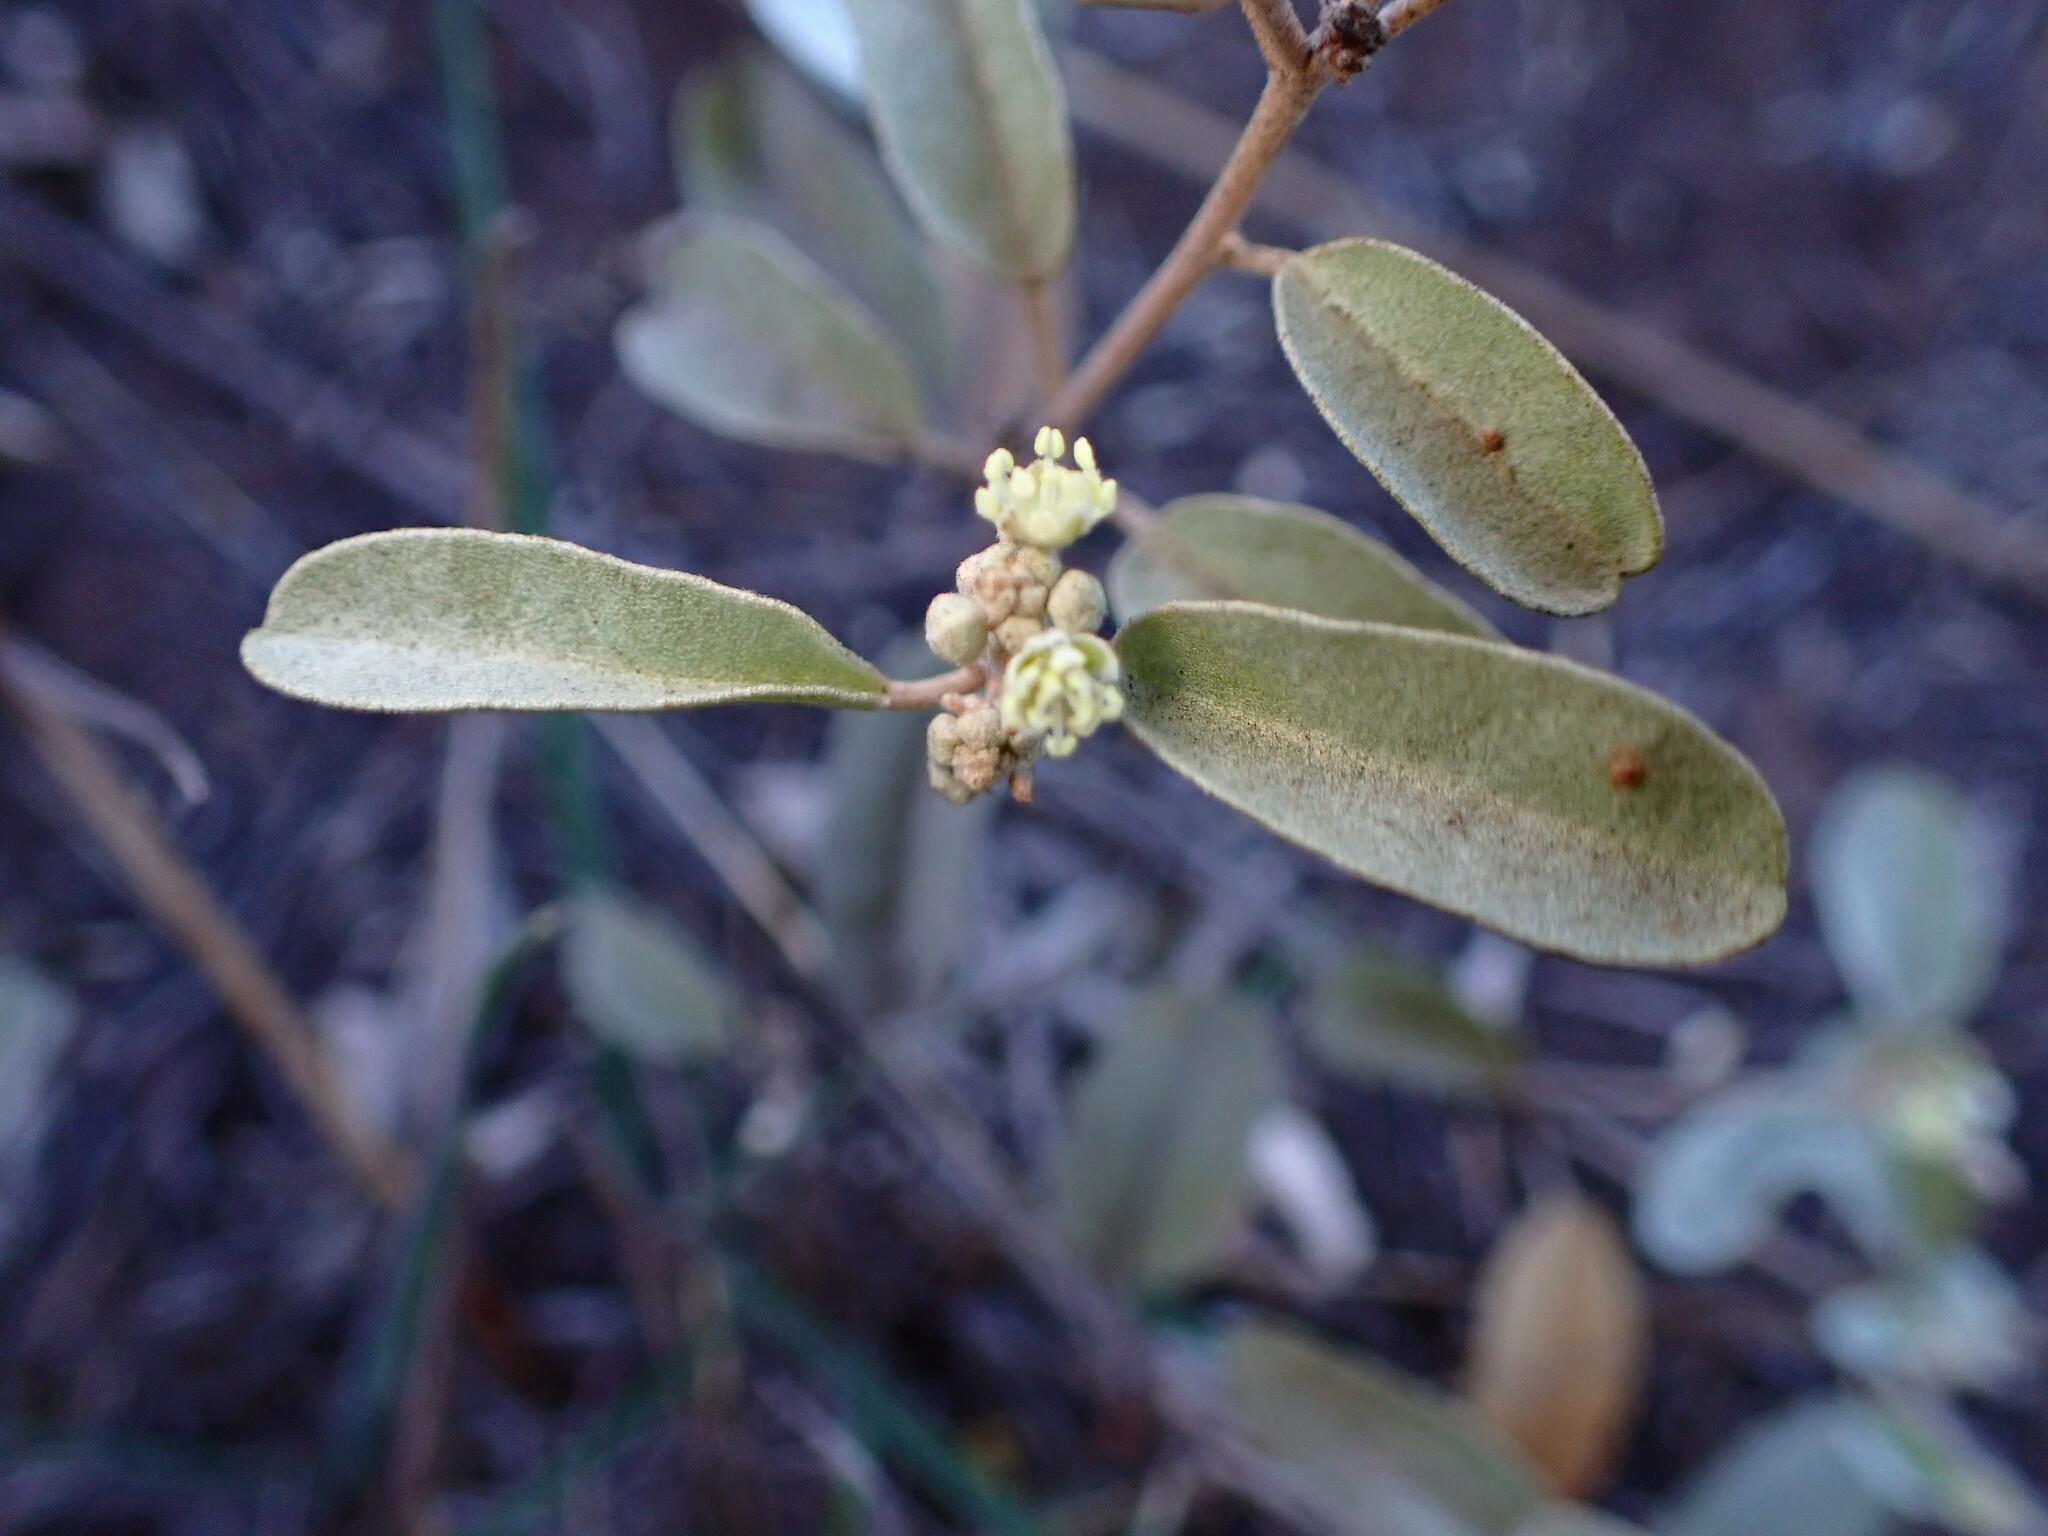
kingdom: Plantae
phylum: Tracheophyta
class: Magnoliopsida
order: Malpighiales
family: Euphorbiaceae
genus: Croton
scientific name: Croton californicus
